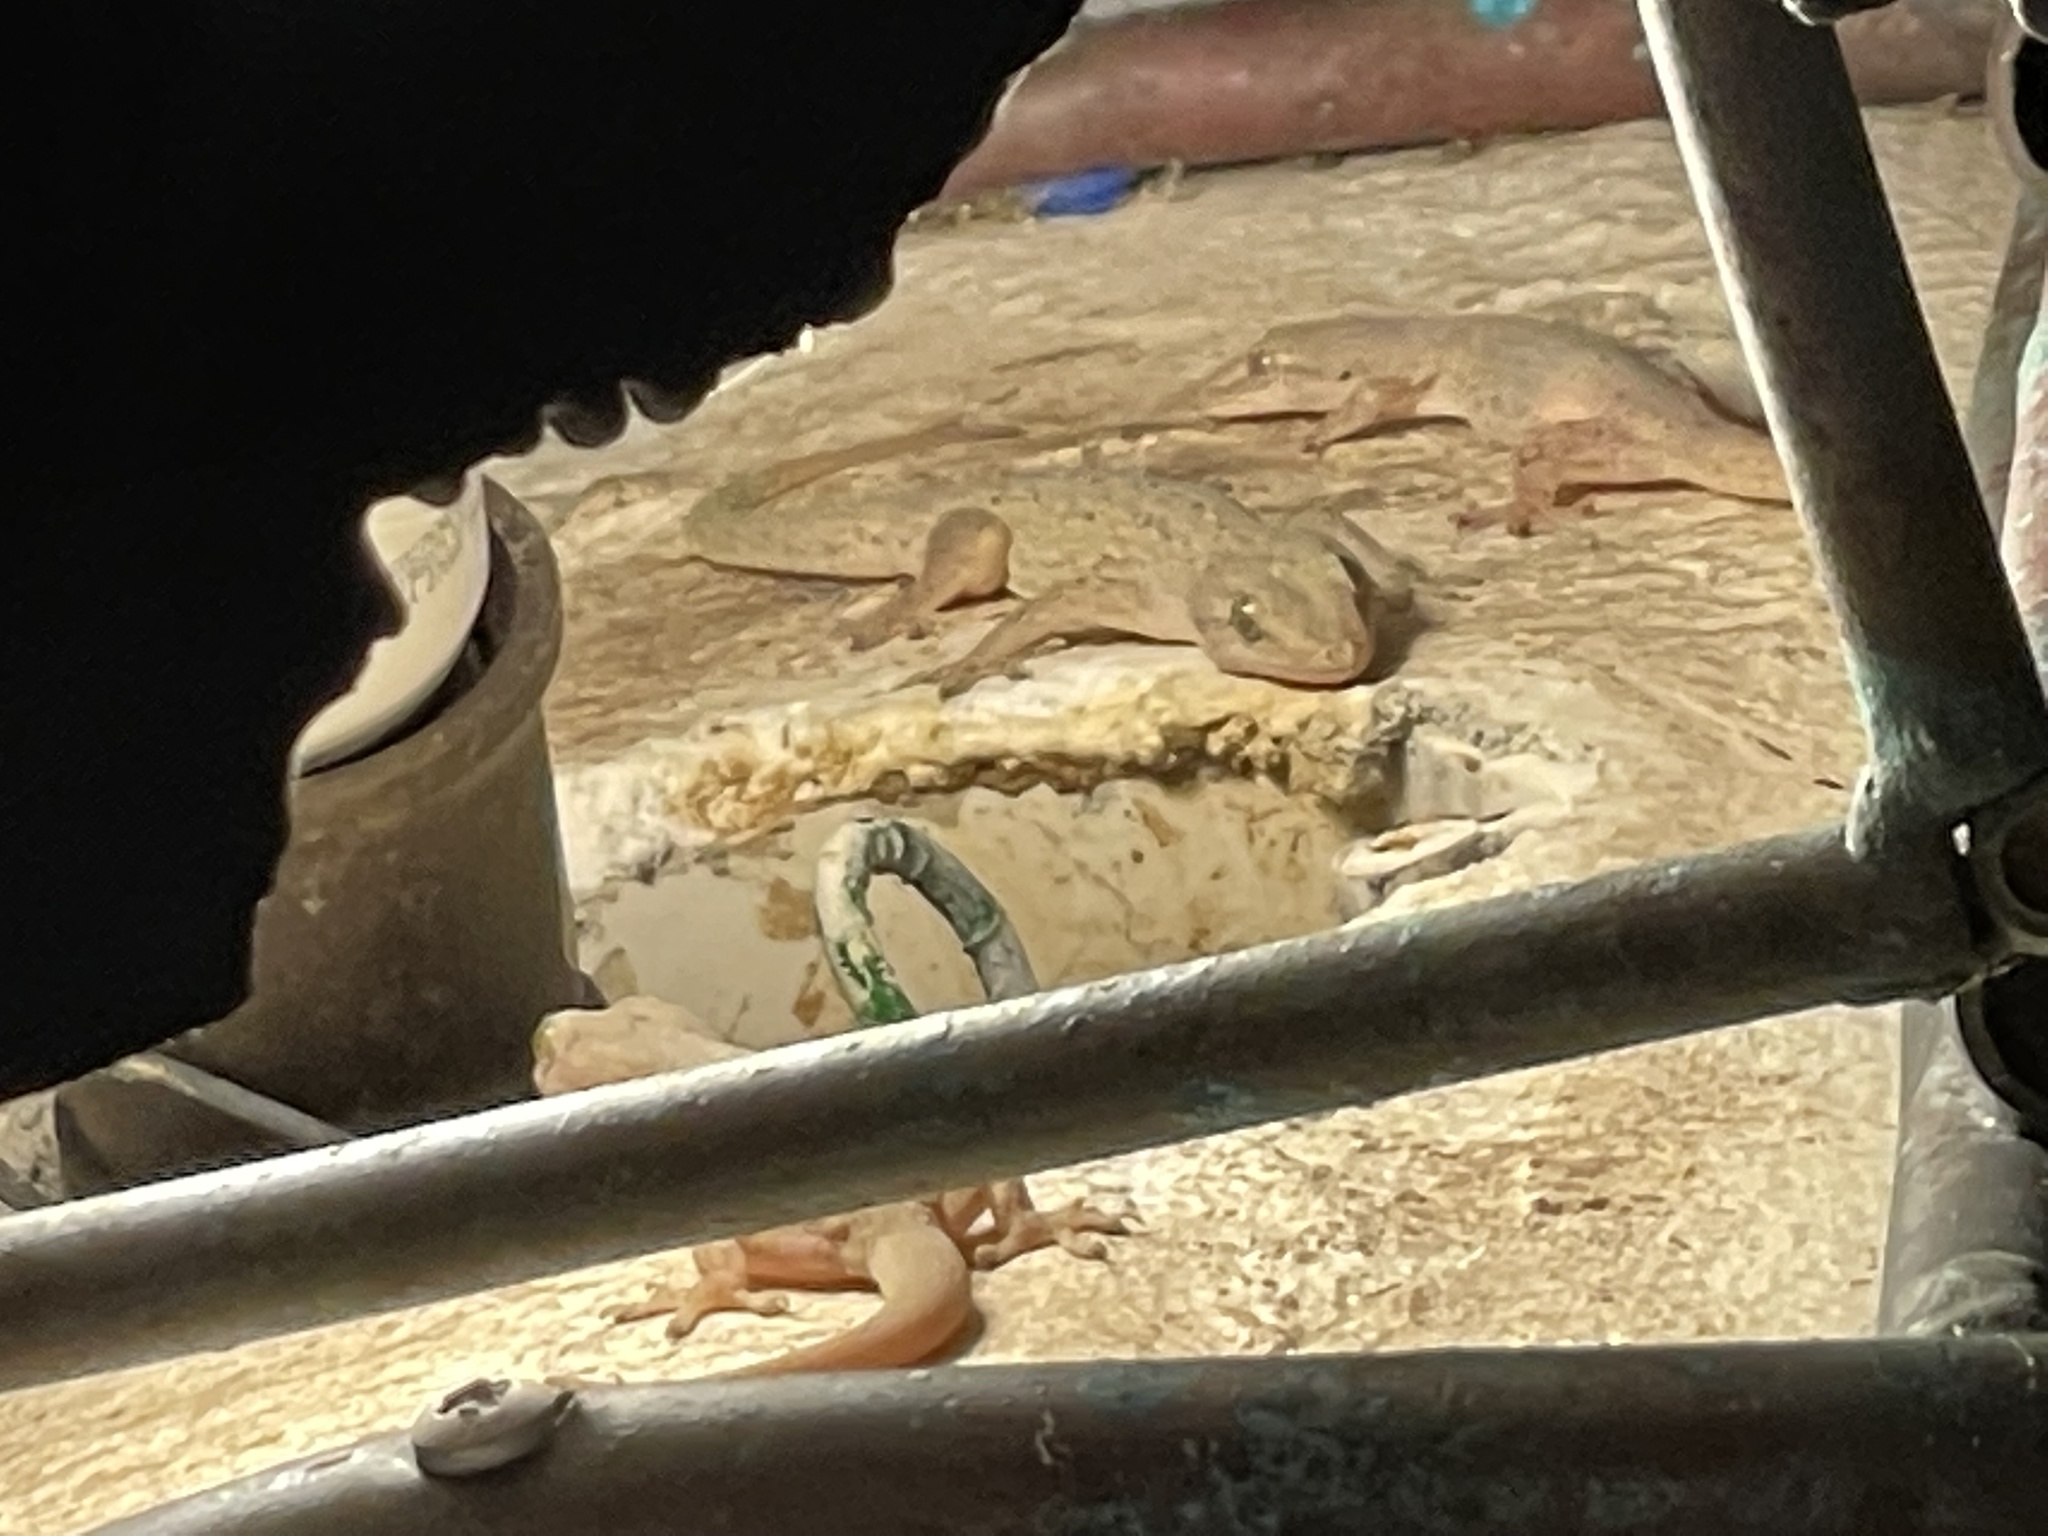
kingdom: Animalia
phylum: Chordata
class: Squamata
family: Gekkonidae
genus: Hemidactylus
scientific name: Hemidactylus frenatus
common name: Common house gecko
